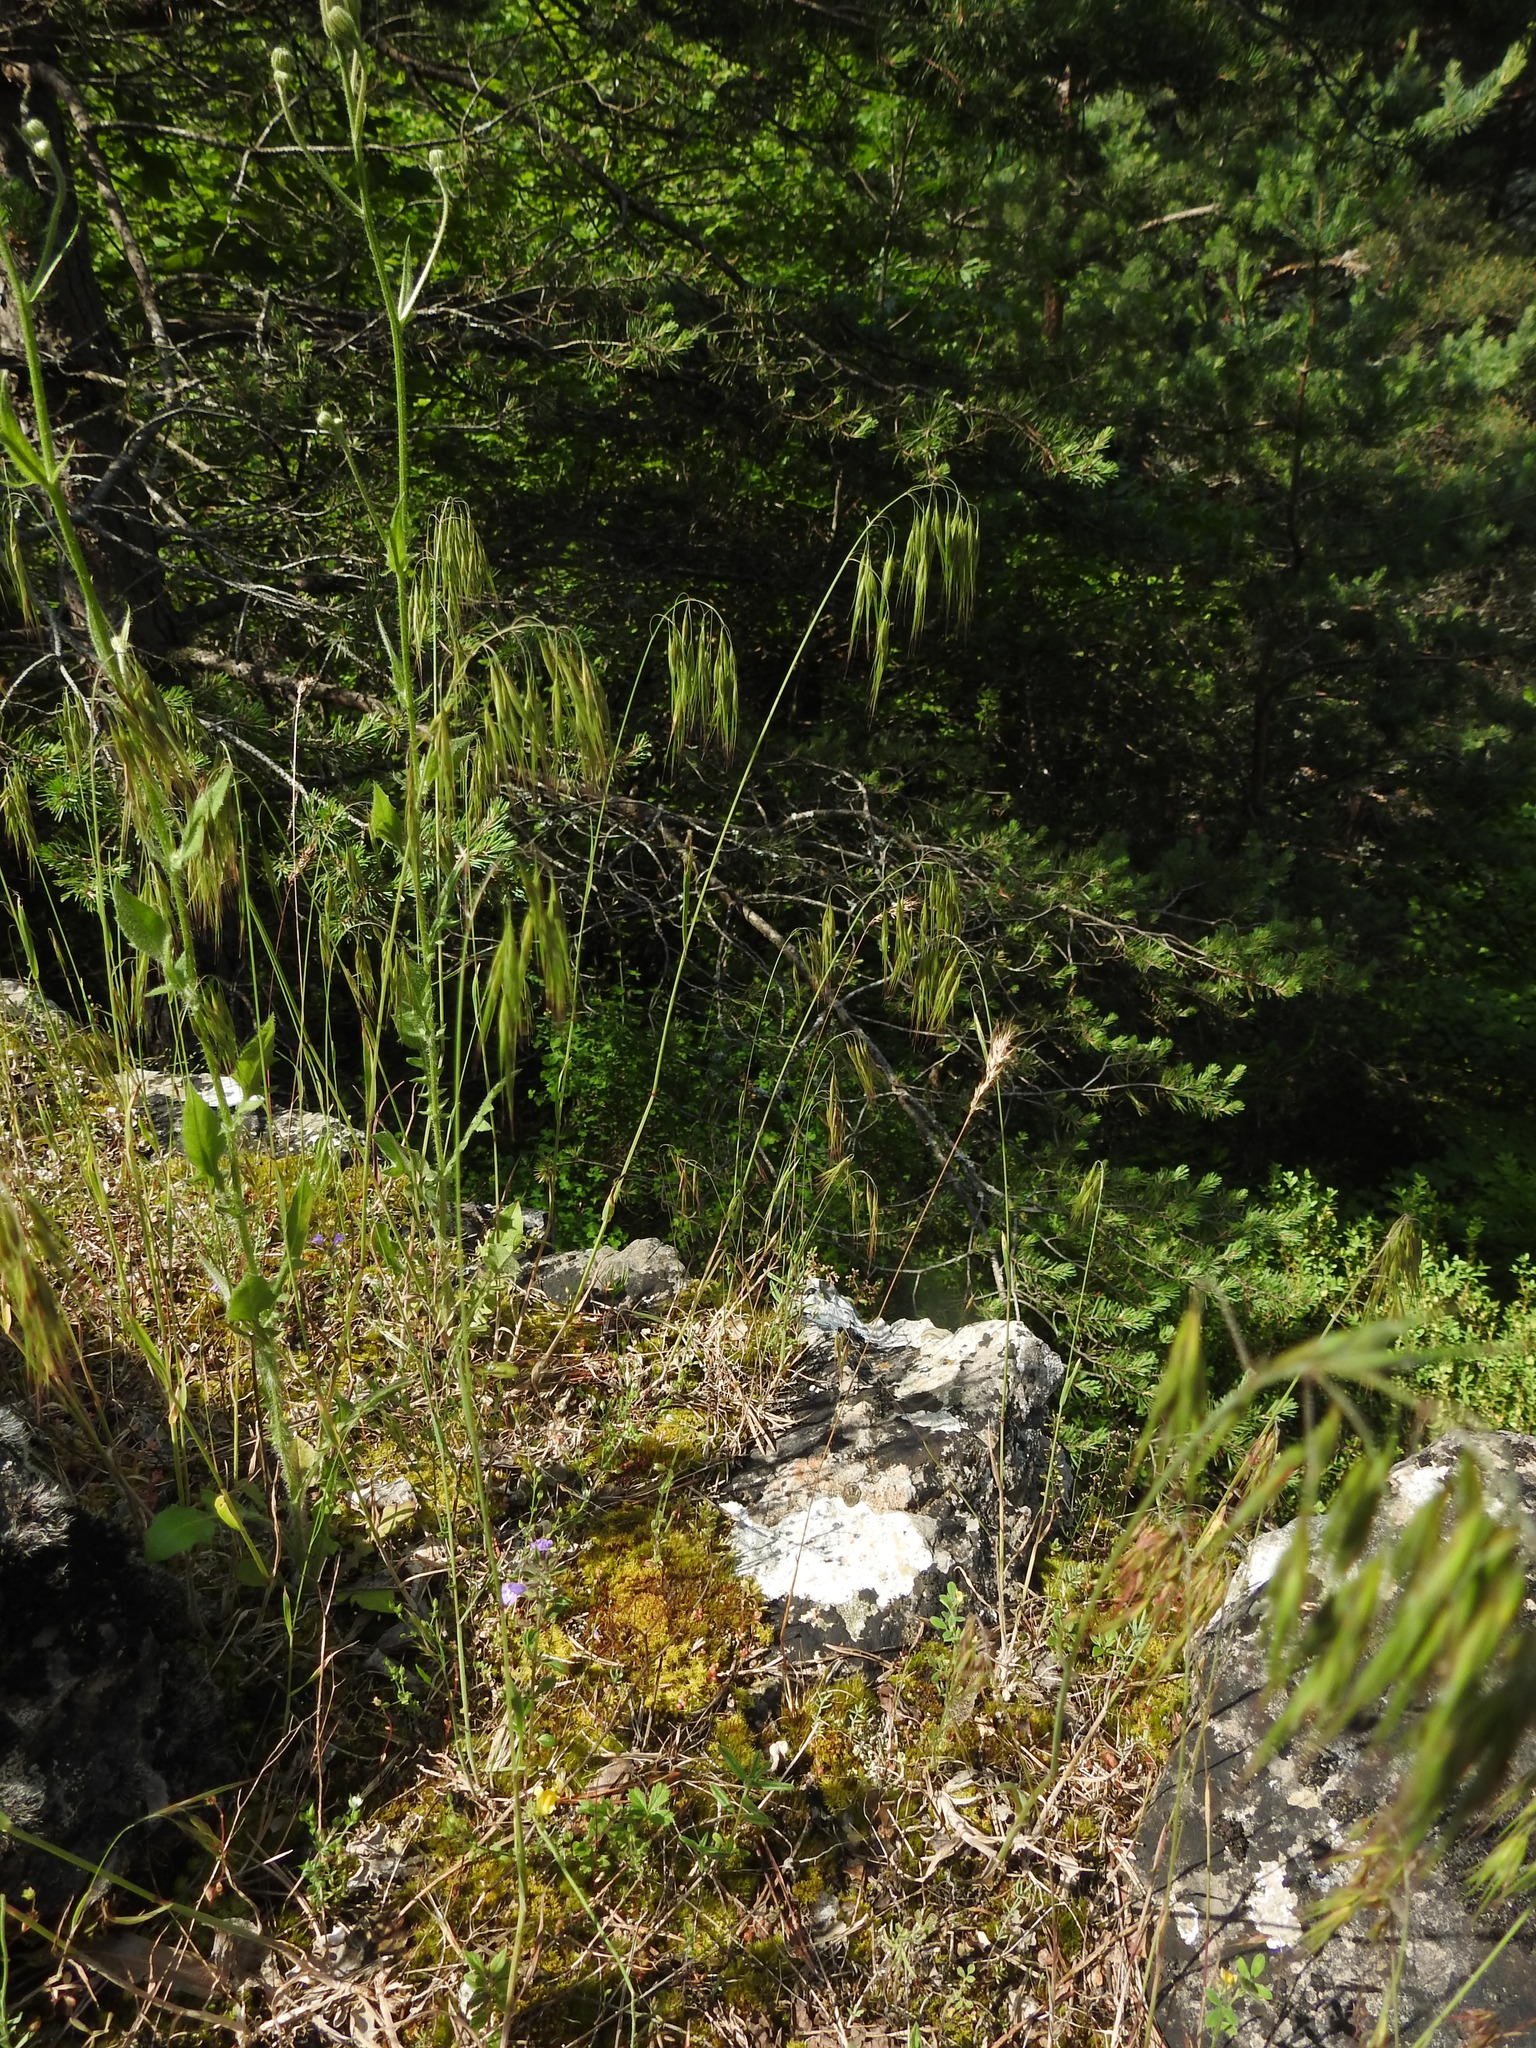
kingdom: Plantae
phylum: Tracheophyta
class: Liliopsida
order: Poales
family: Poaceae
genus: Bromus
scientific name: Bromus tectorum
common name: Cheatgrass
